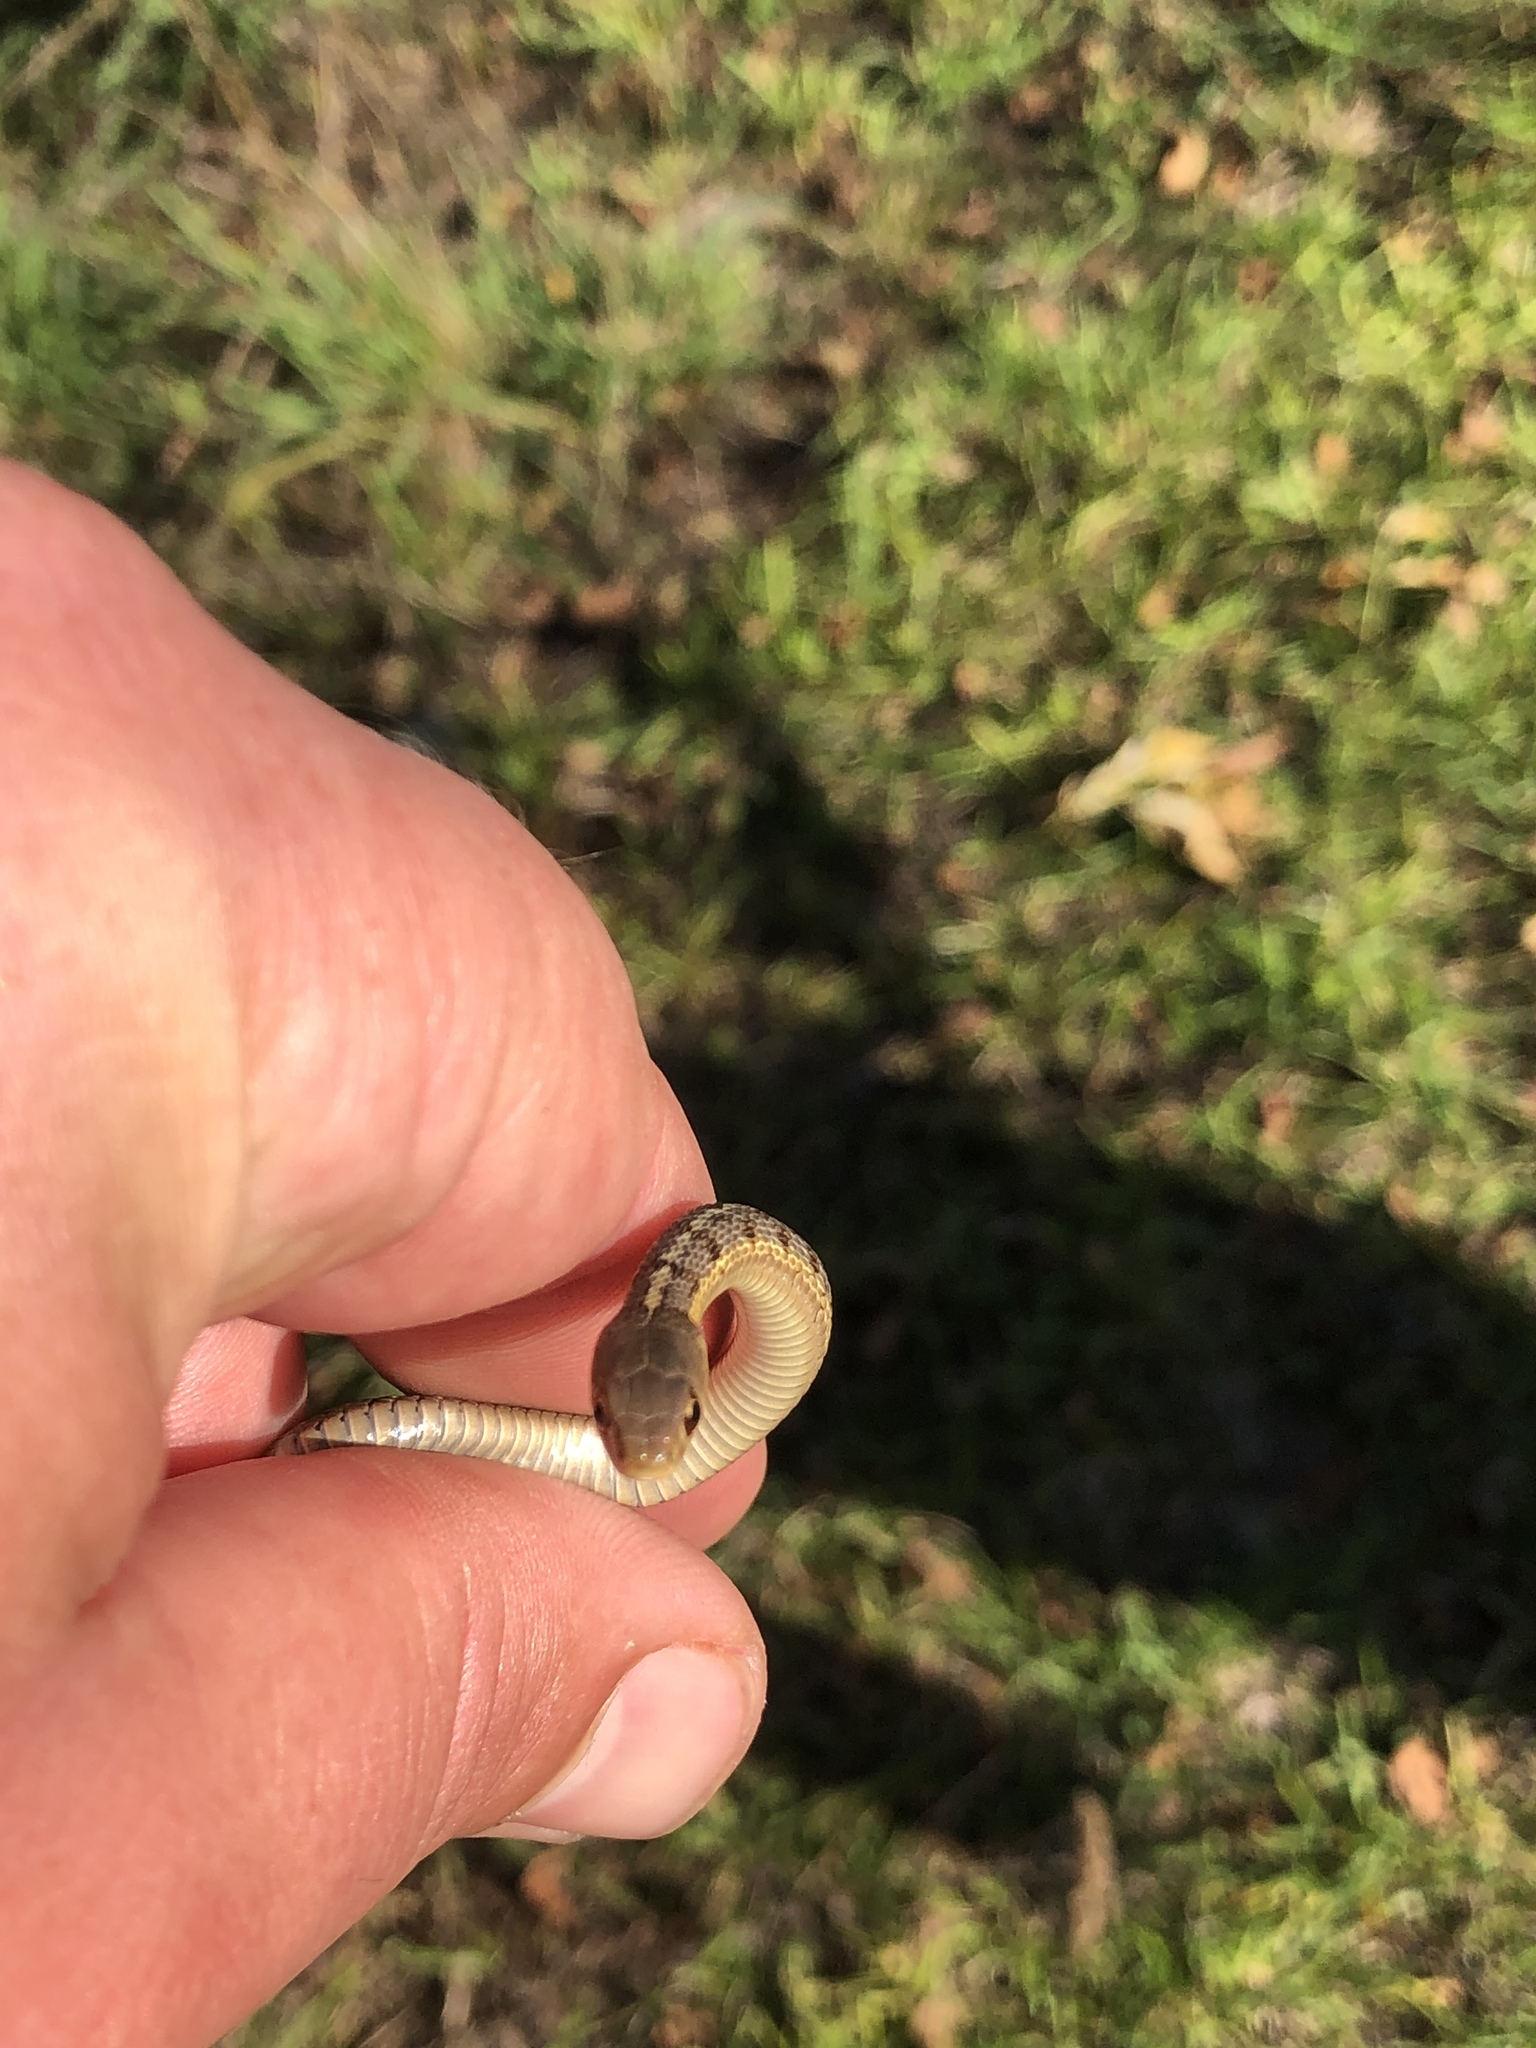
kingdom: Animalia
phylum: Chordata
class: Squamata
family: Colubridae
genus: Thamnophis
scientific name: Thamnophis sirtalis
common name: Common garter snake
